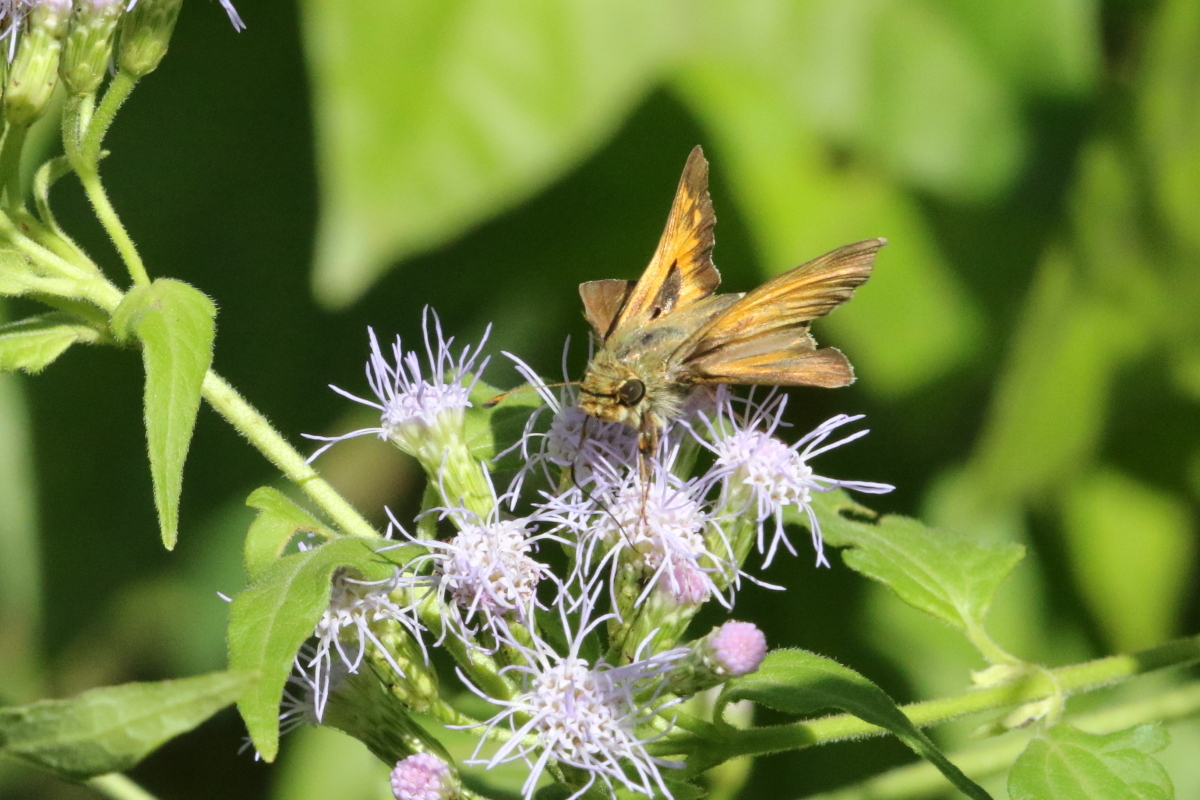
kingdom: Animalia
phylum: Arthropoda
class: Insecta
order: Lepidoptera
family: Hesperiidae
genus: Atalopedes
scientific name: Atalopedes
